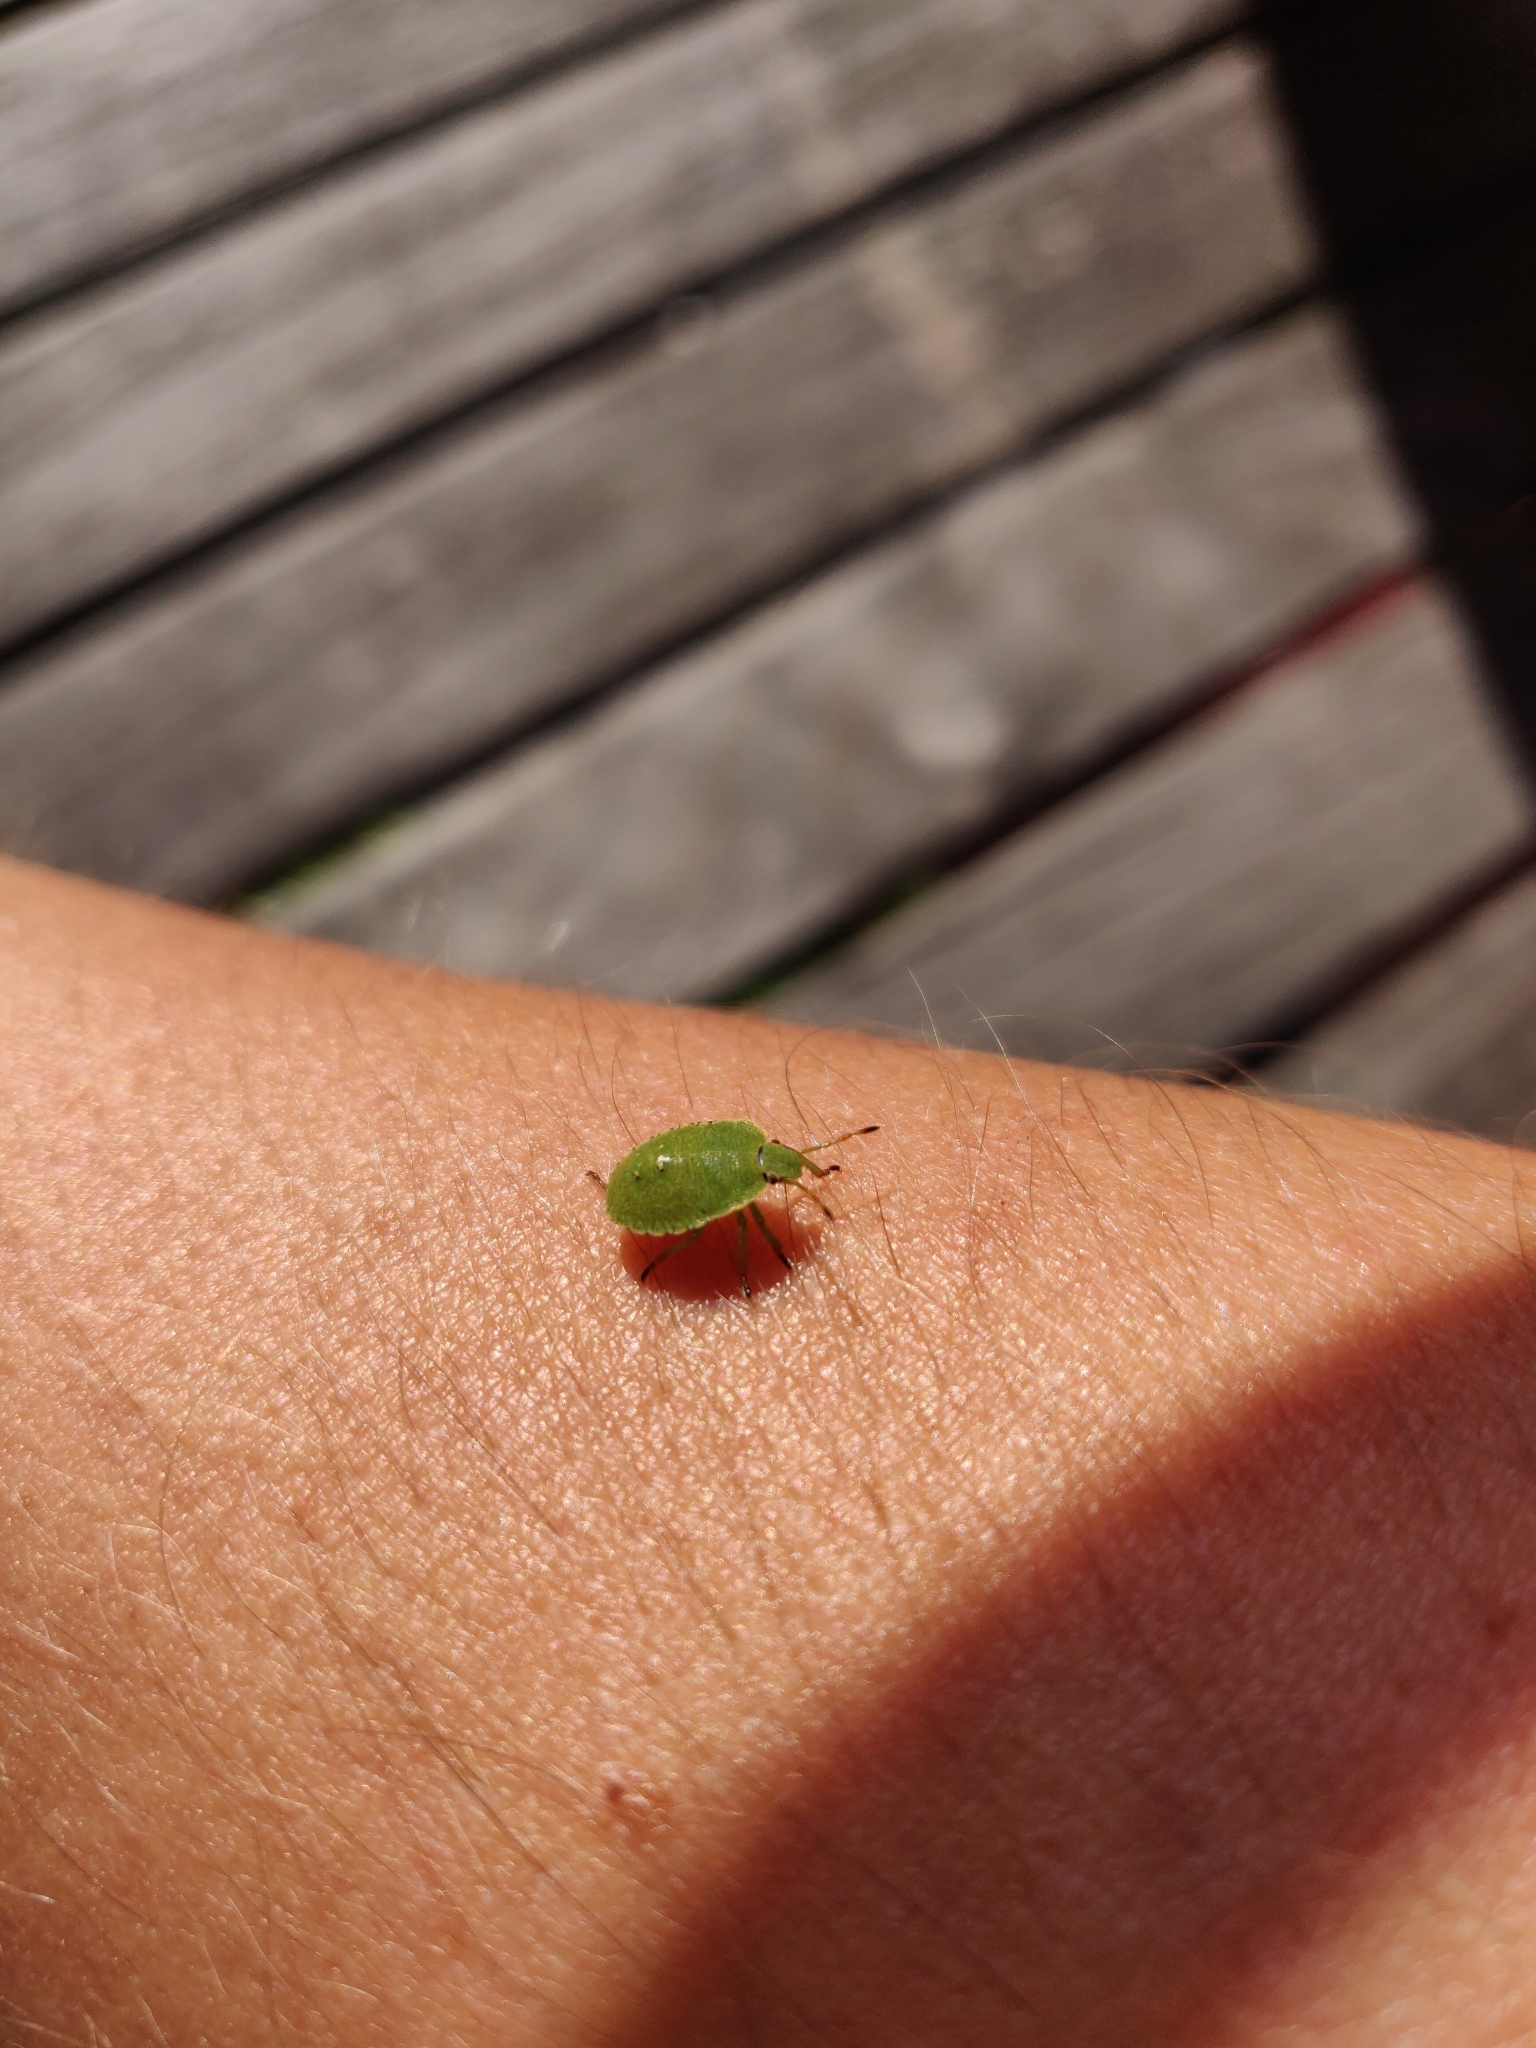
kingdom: Animalia
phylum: Arthropoda
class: Insecta
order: Hemiptera
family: Pentatomidae
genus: Palomena
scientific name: Palomena prasina
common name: Green shieldbug
